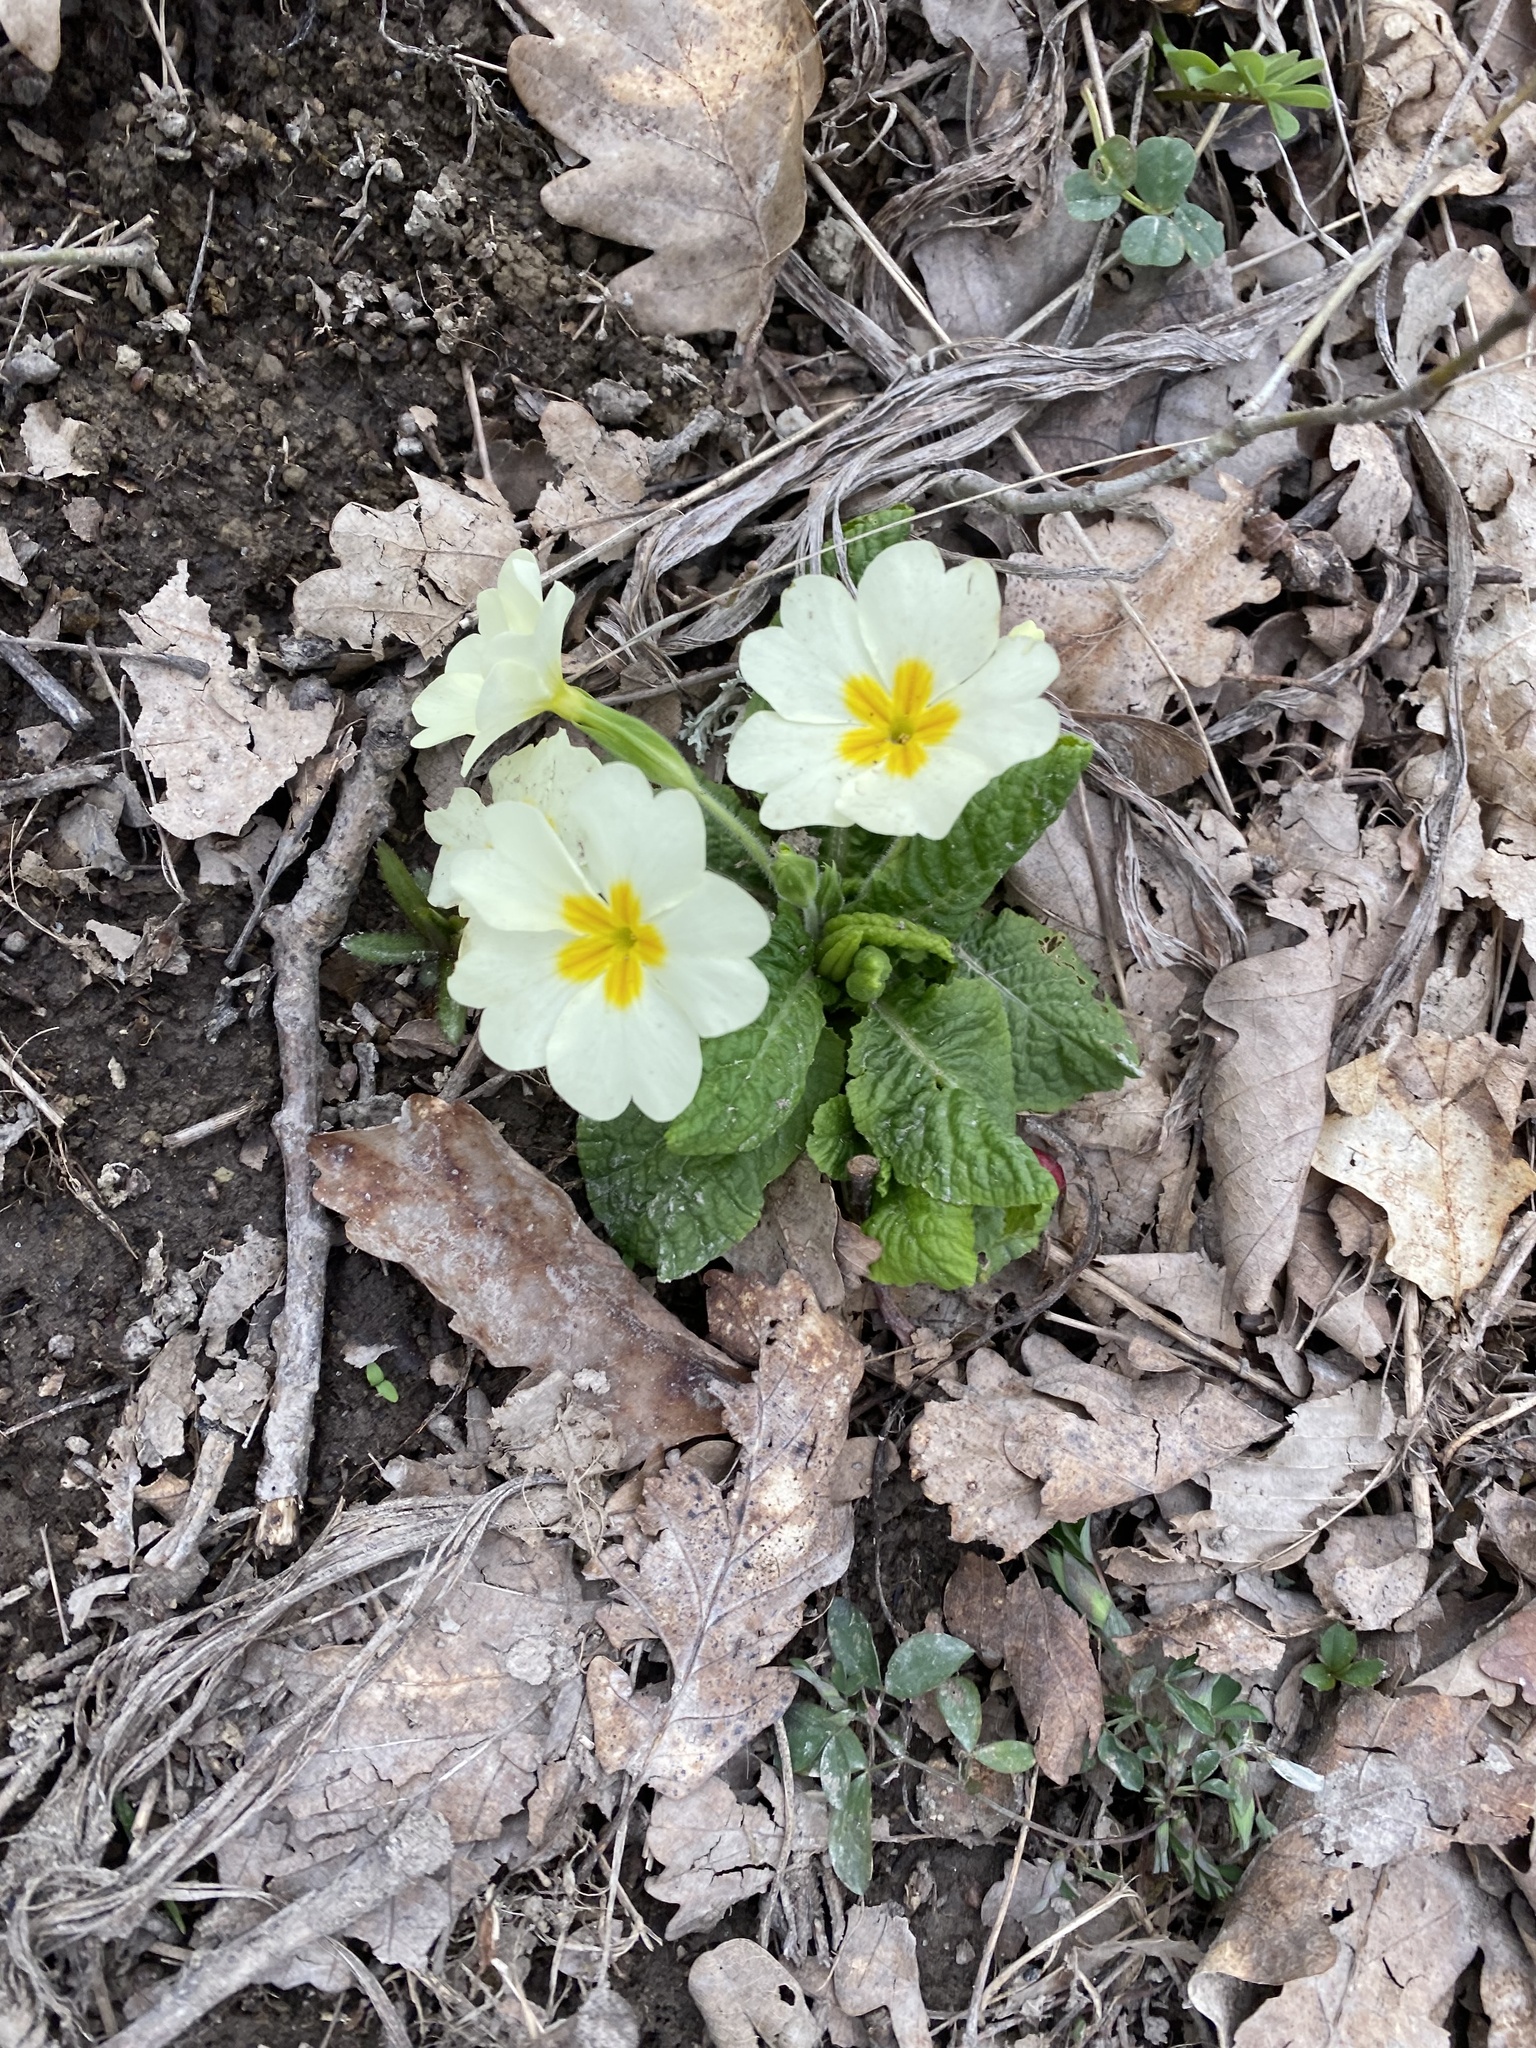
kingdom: Plantae
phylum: Tracheophyta
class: Magnoliopsida
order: Ericales
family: Primulaceae
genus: Primula
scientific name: Primula vulgaris
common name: Primrose
